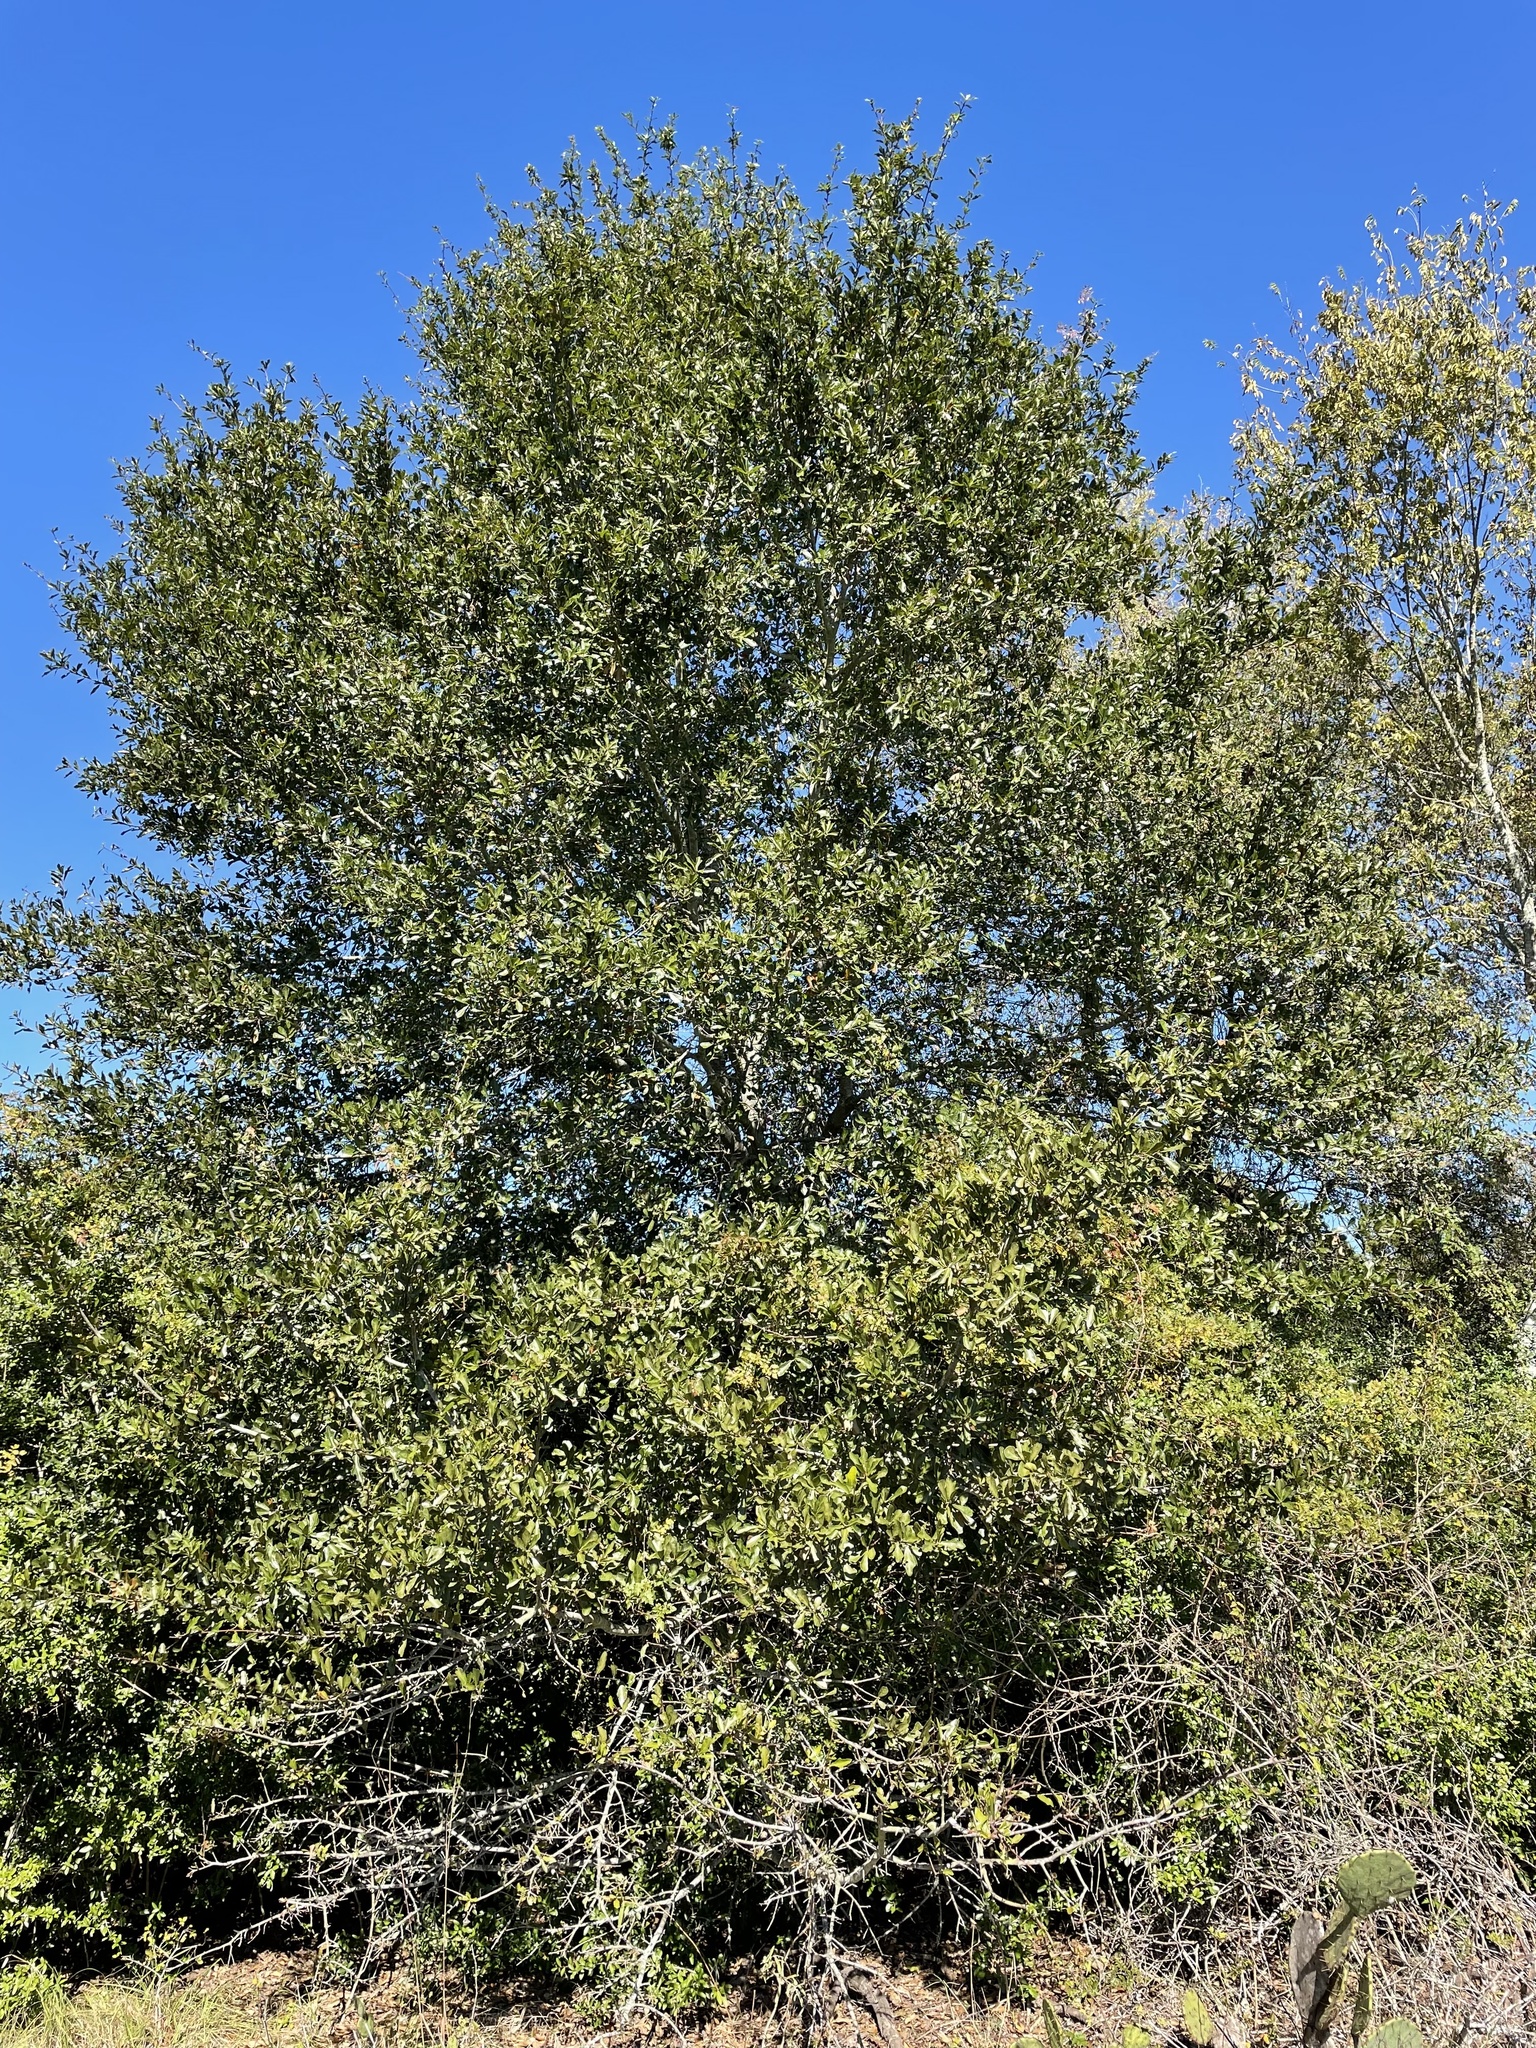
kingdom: Plantae
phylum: Tracheophyta
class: Magnoliopsida
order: Fagales
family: Fagaceae
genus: Quercus
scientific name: Quercus nigra
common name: Water oak
